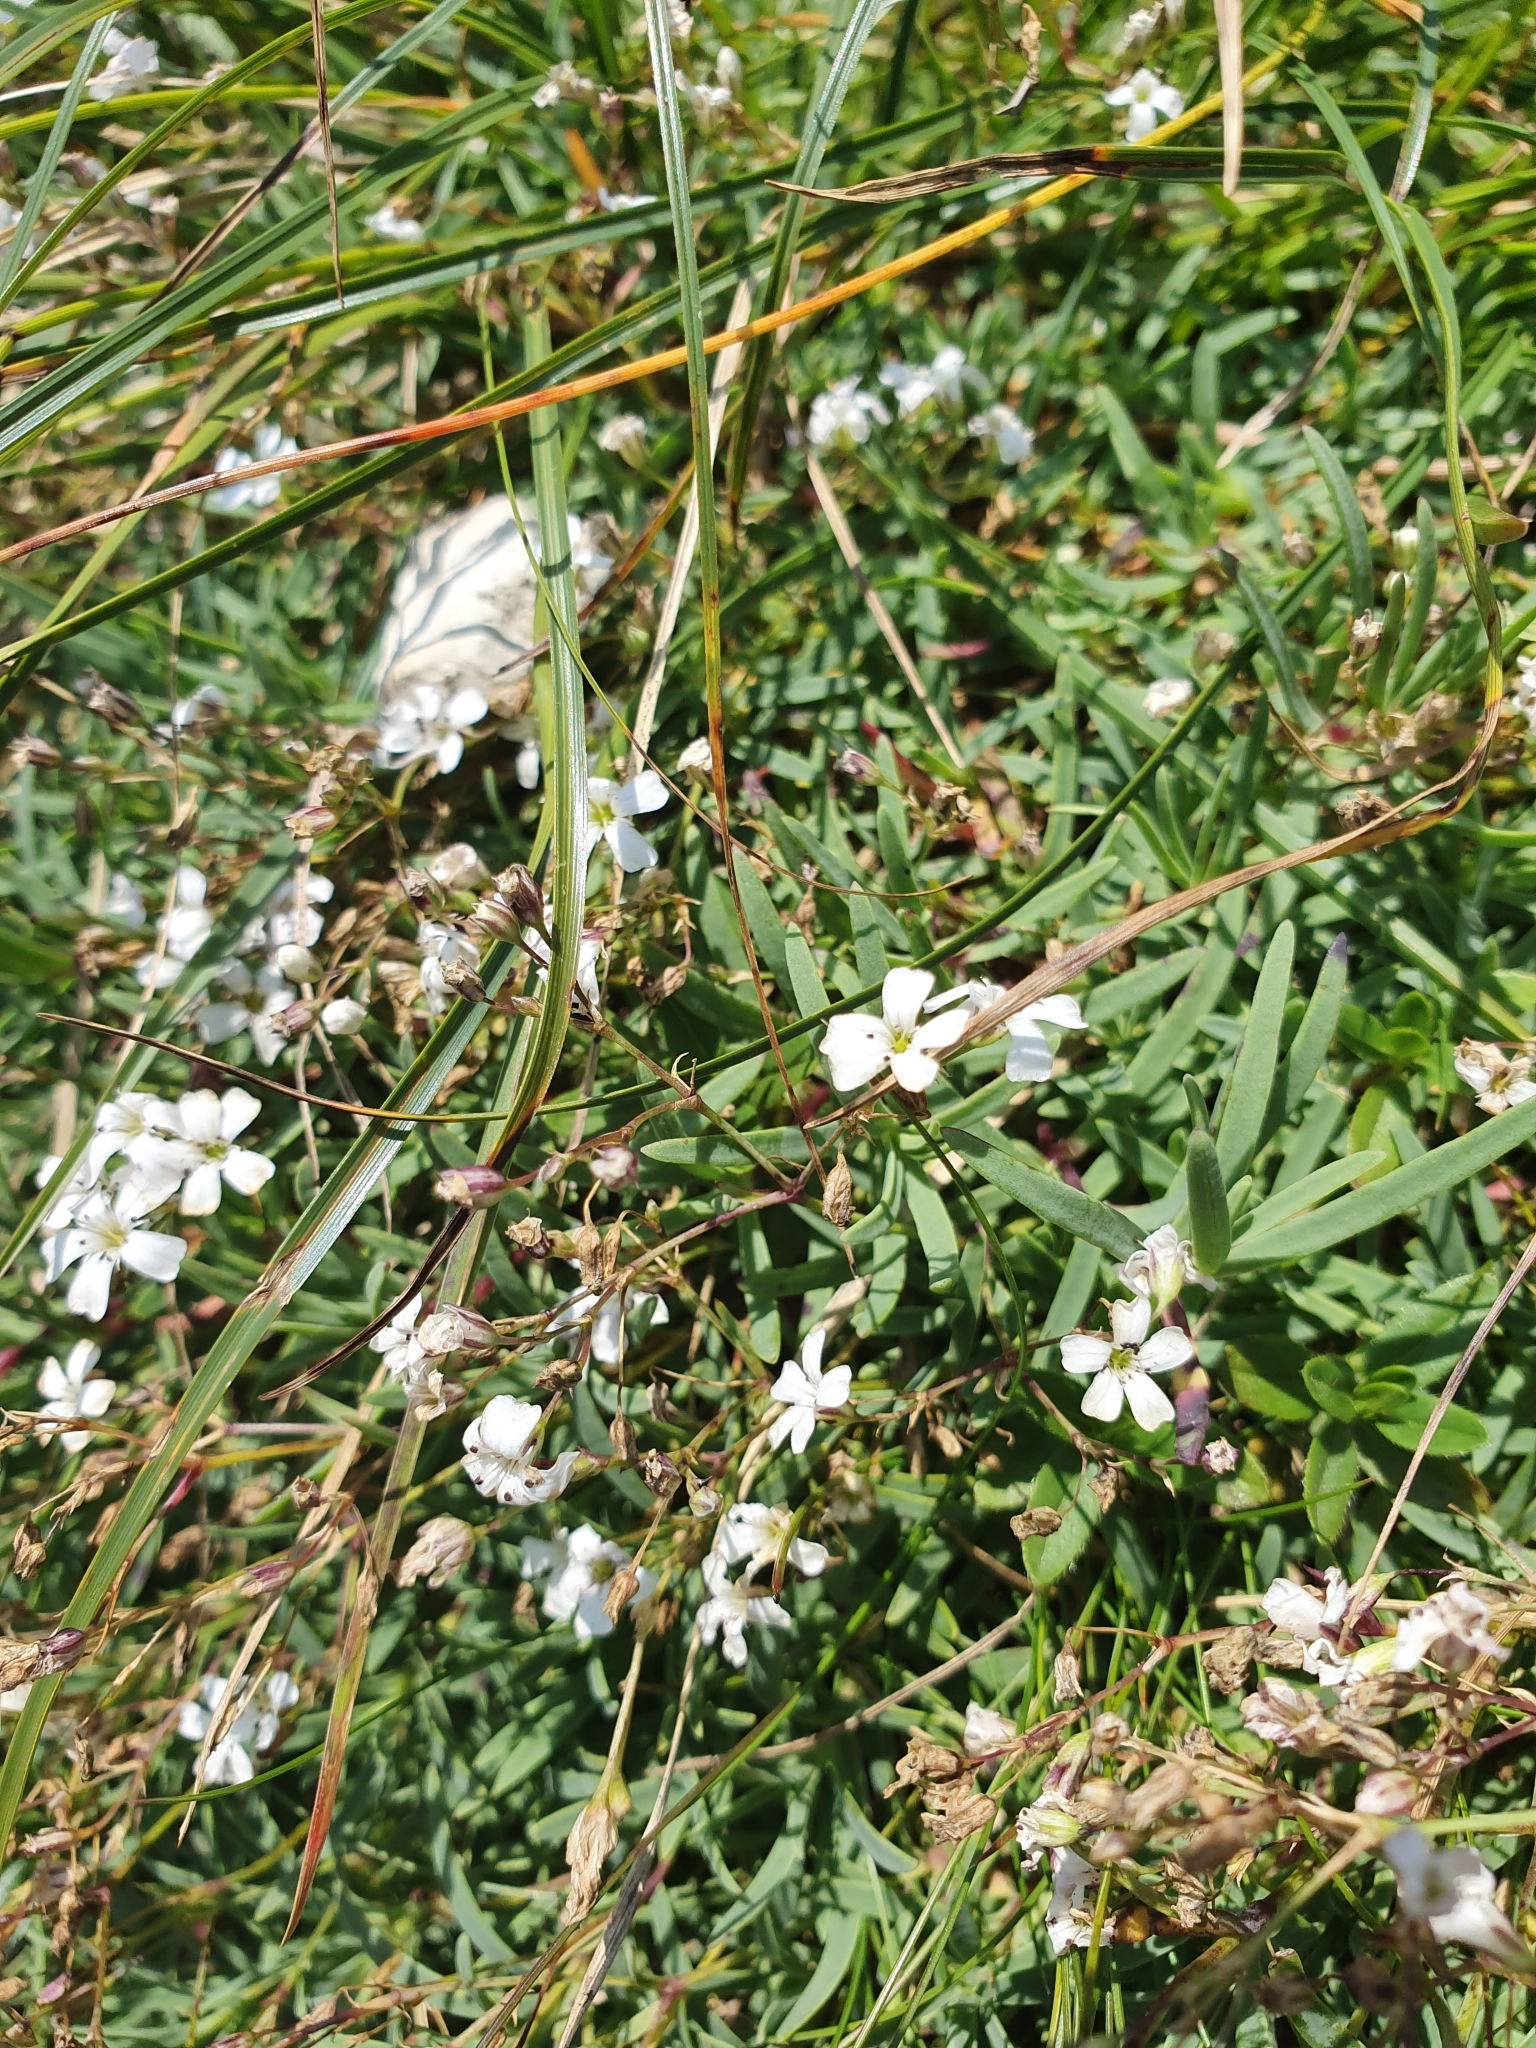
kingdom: Plantae
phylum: Tracheophyta
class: Magnoliopsida
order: Caryophyllales
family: Caryophyllaceae
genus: Gypsophila
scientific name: Gypsophila repens
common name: Creeping baby's-breath
